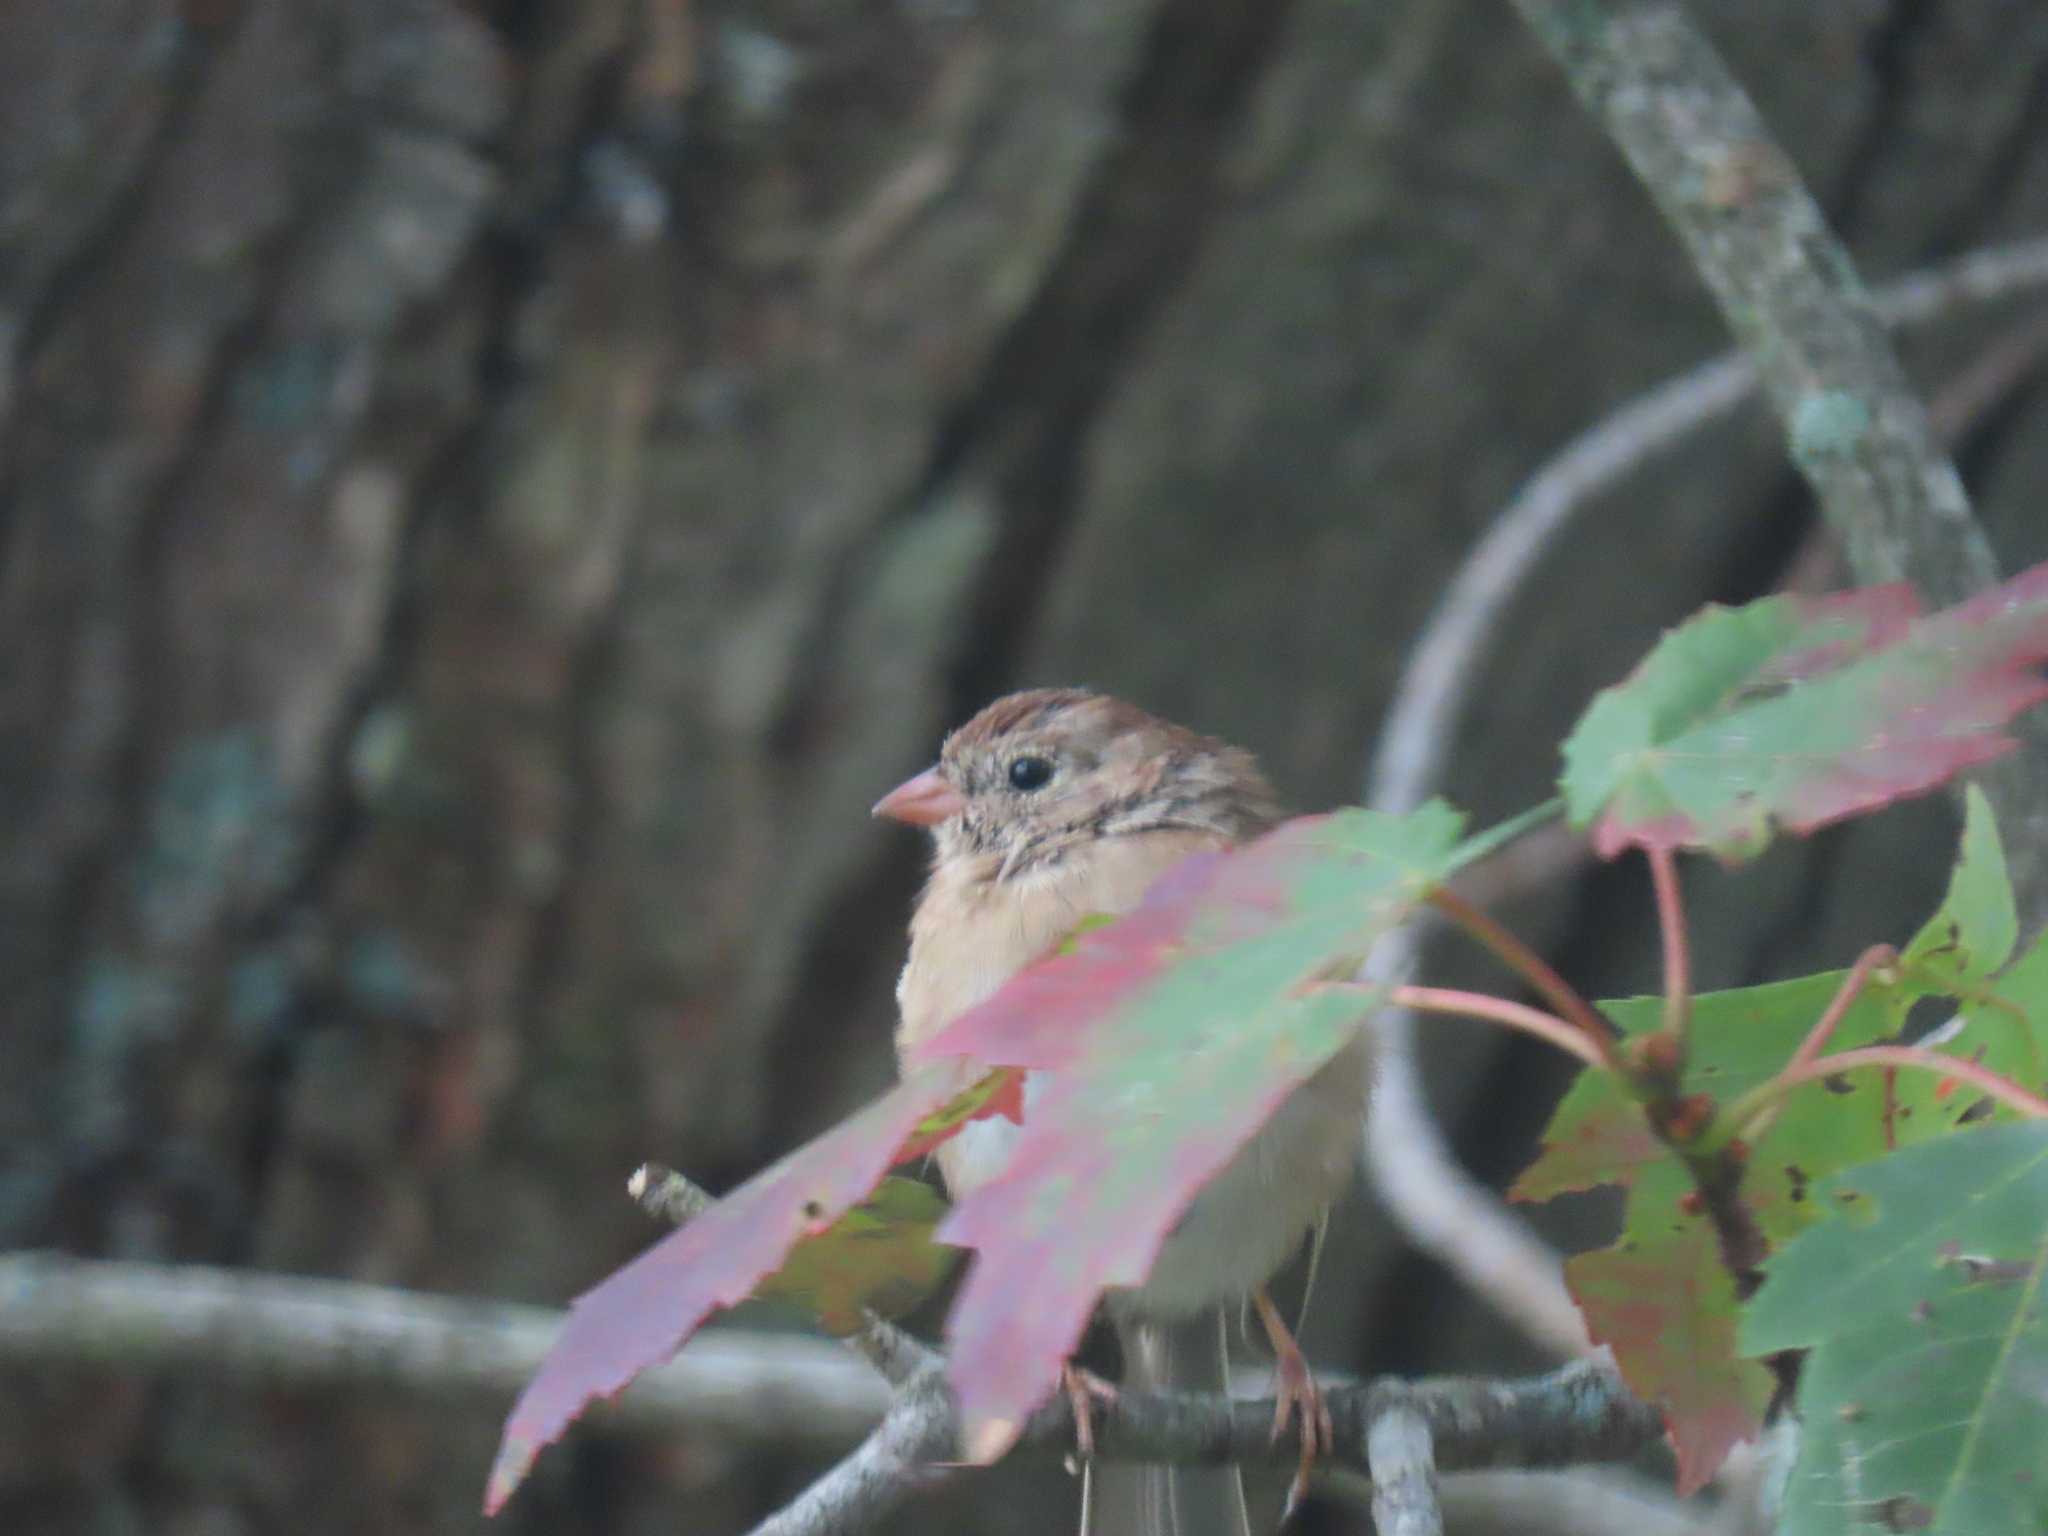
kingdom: Animalia
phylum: Chordata
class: Aves
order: Passeriformes
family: Passerellidae
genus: Spizella
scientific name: Spizella pusilla
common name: Field sparrow
